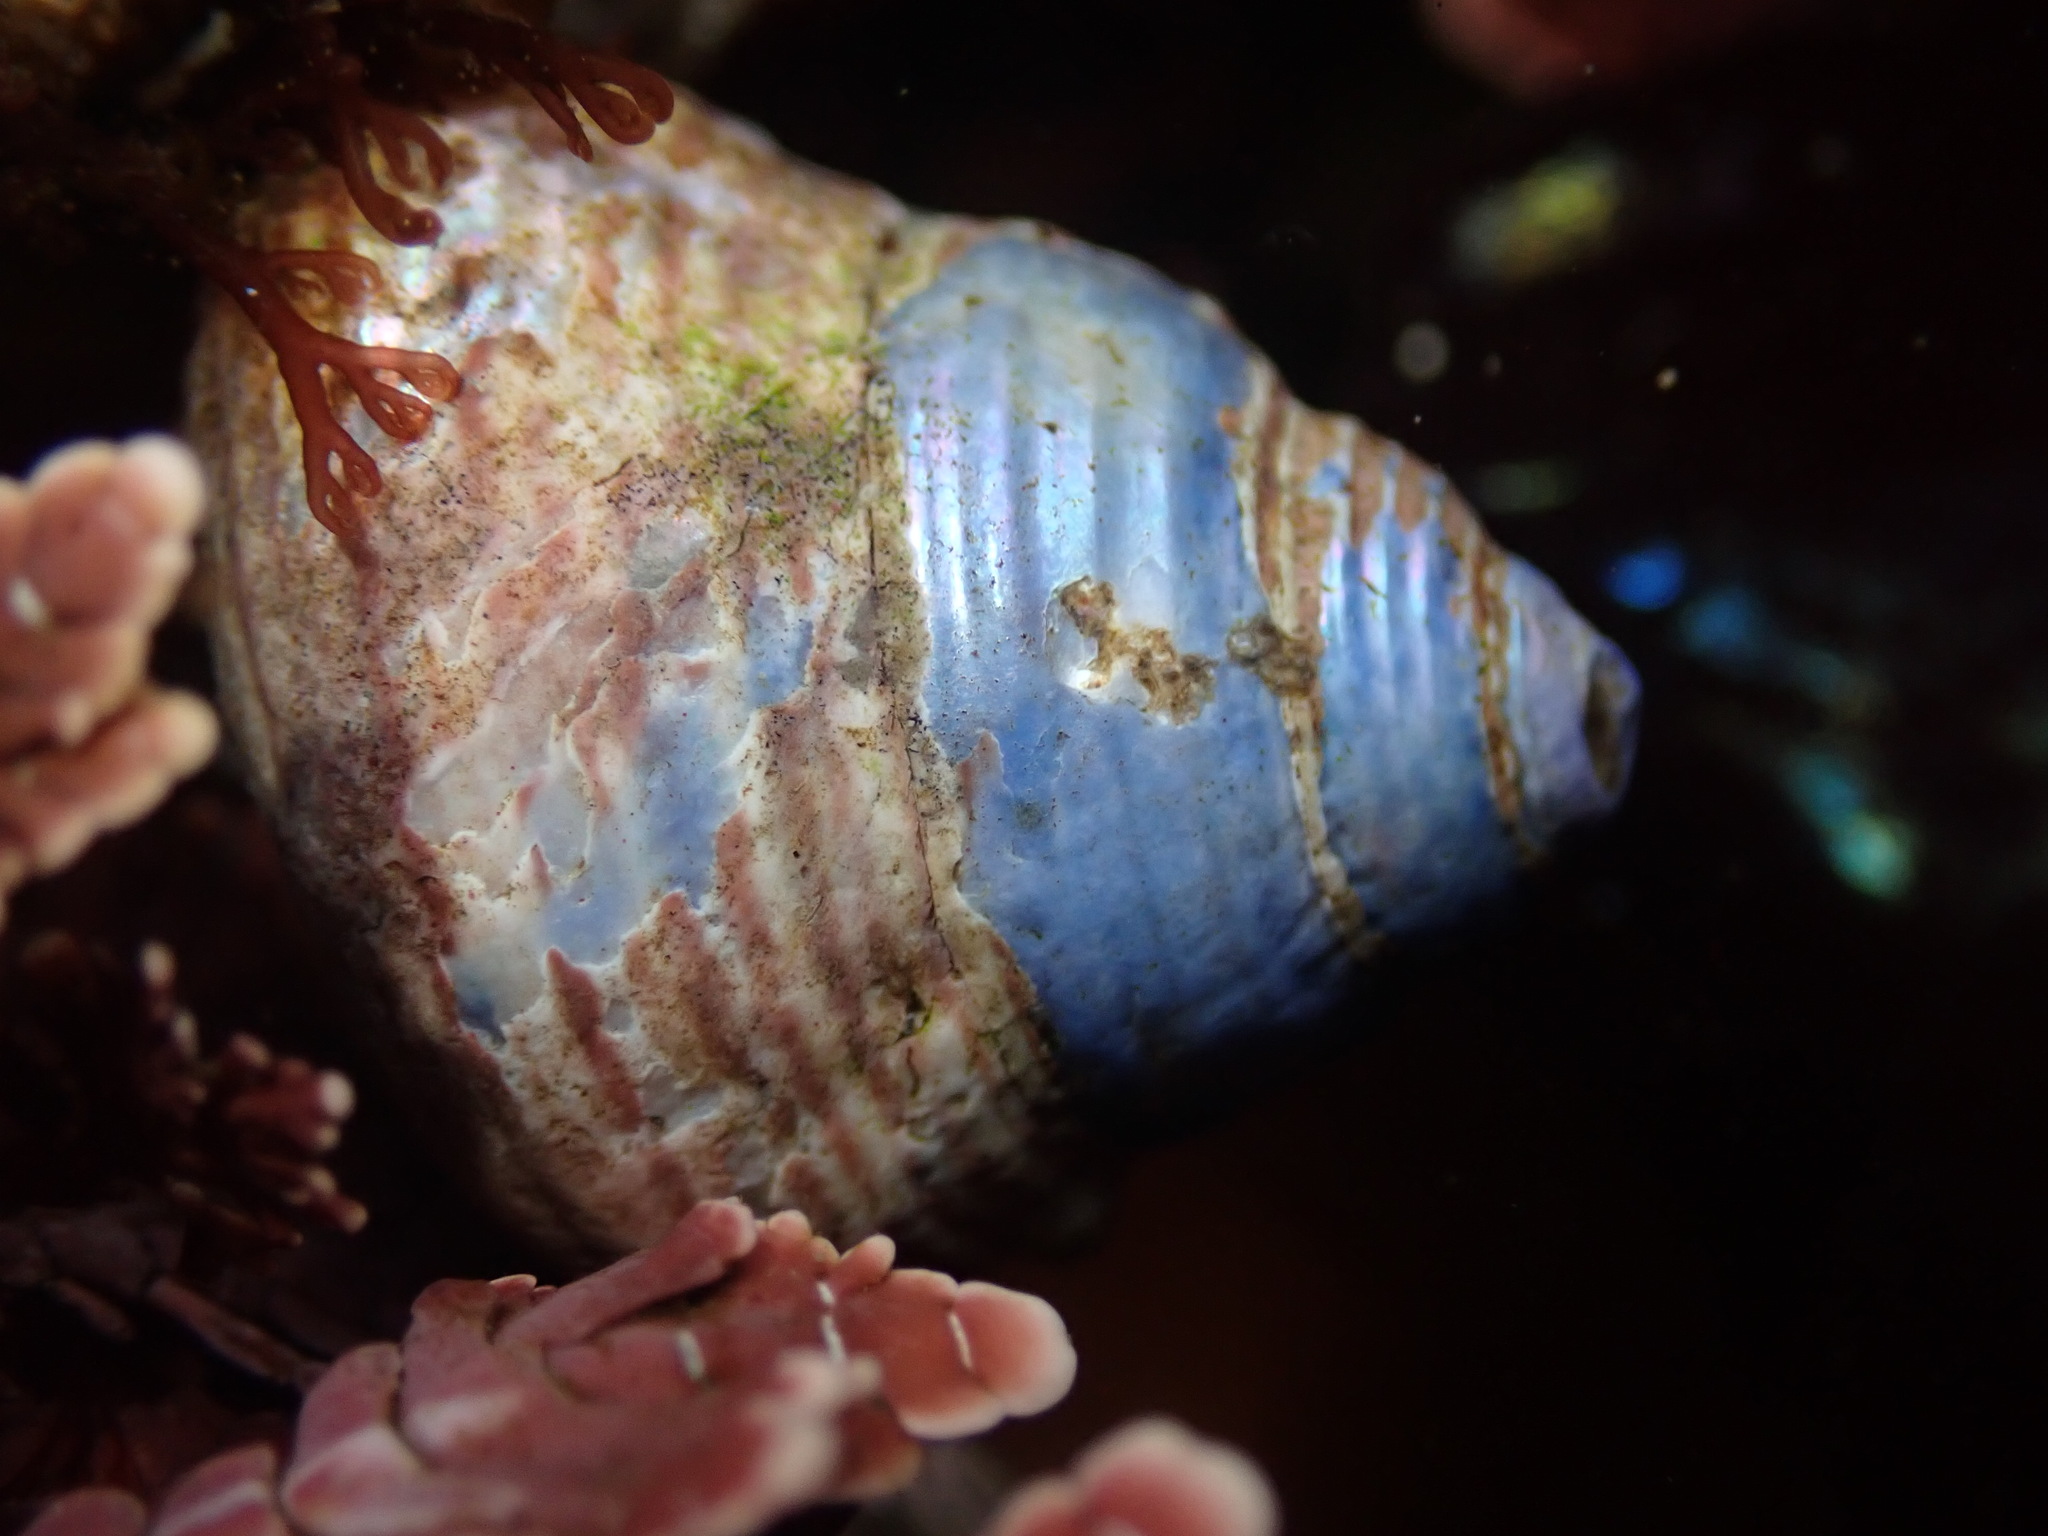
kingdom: Animalia
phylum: Mollusca
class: Gastropoda
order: Trochida
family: Calliostomatidae
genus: Calliostoma
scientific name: Calliostoma ligatum
